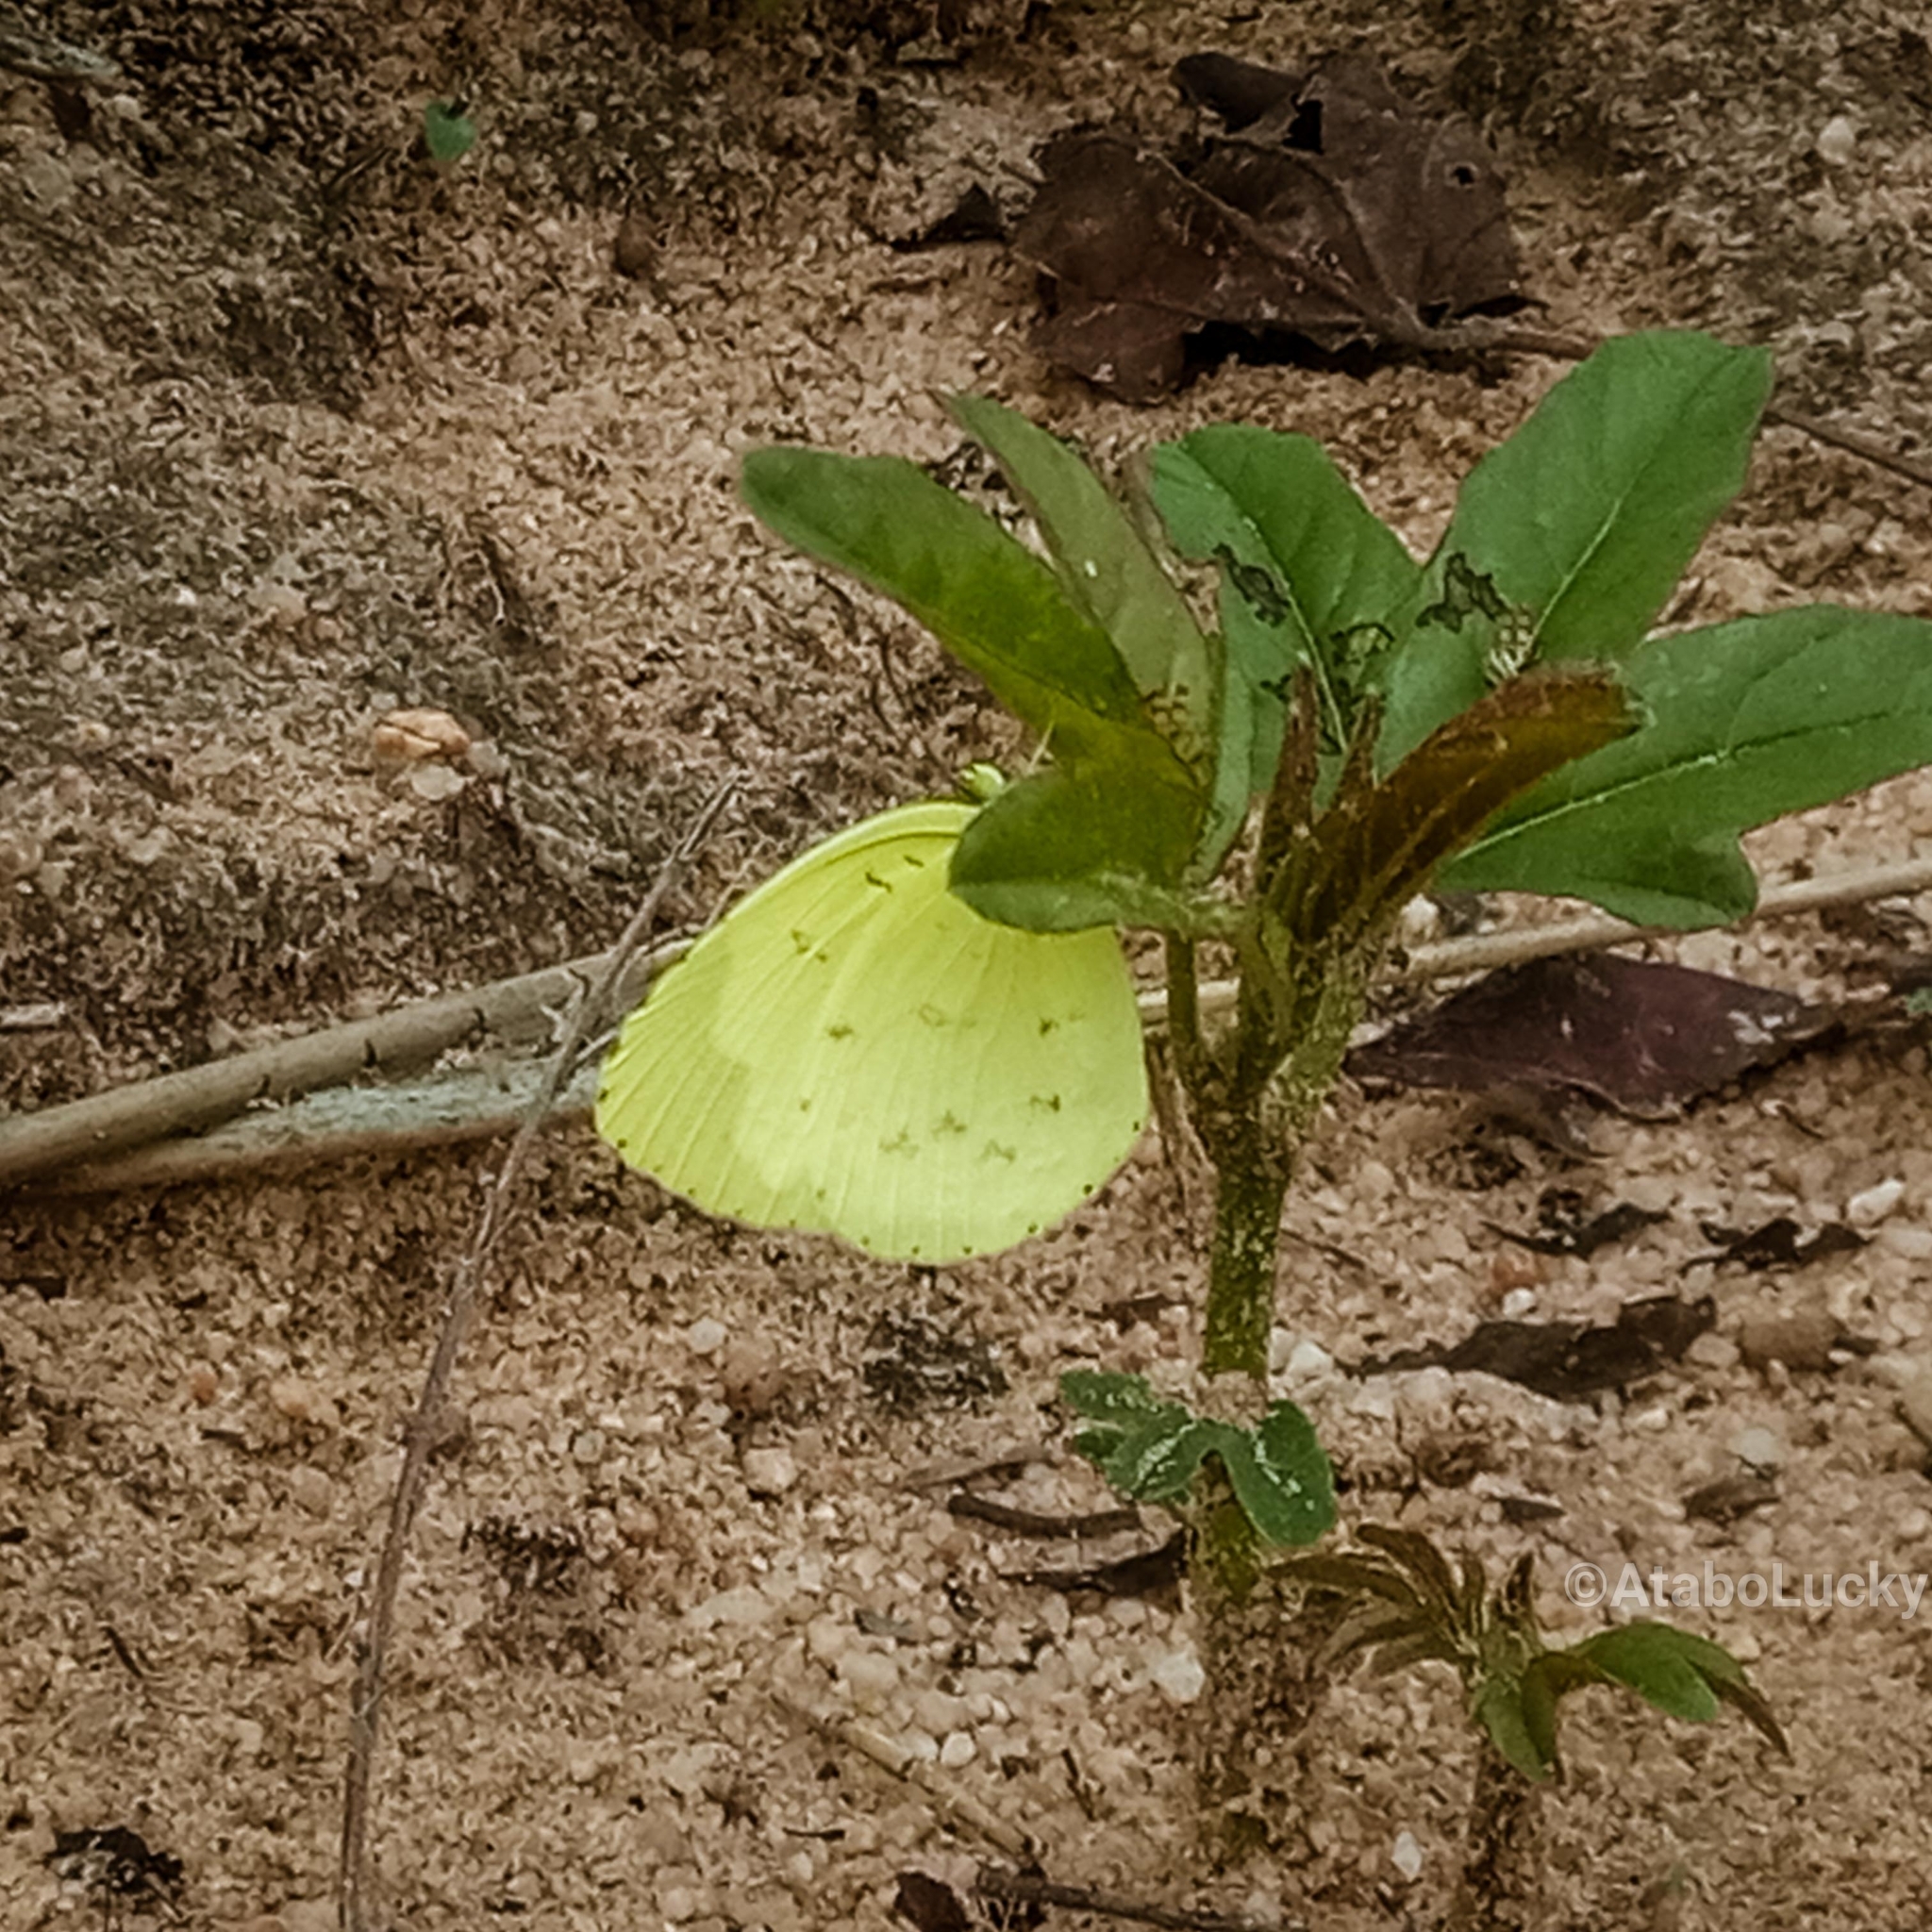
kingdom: Animalia
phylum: Arthropoda
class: Insecta
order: Lepidoptera
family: Pieridae
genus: Eurema
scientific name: Eurema senegalensis
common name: Forest grass yellow
